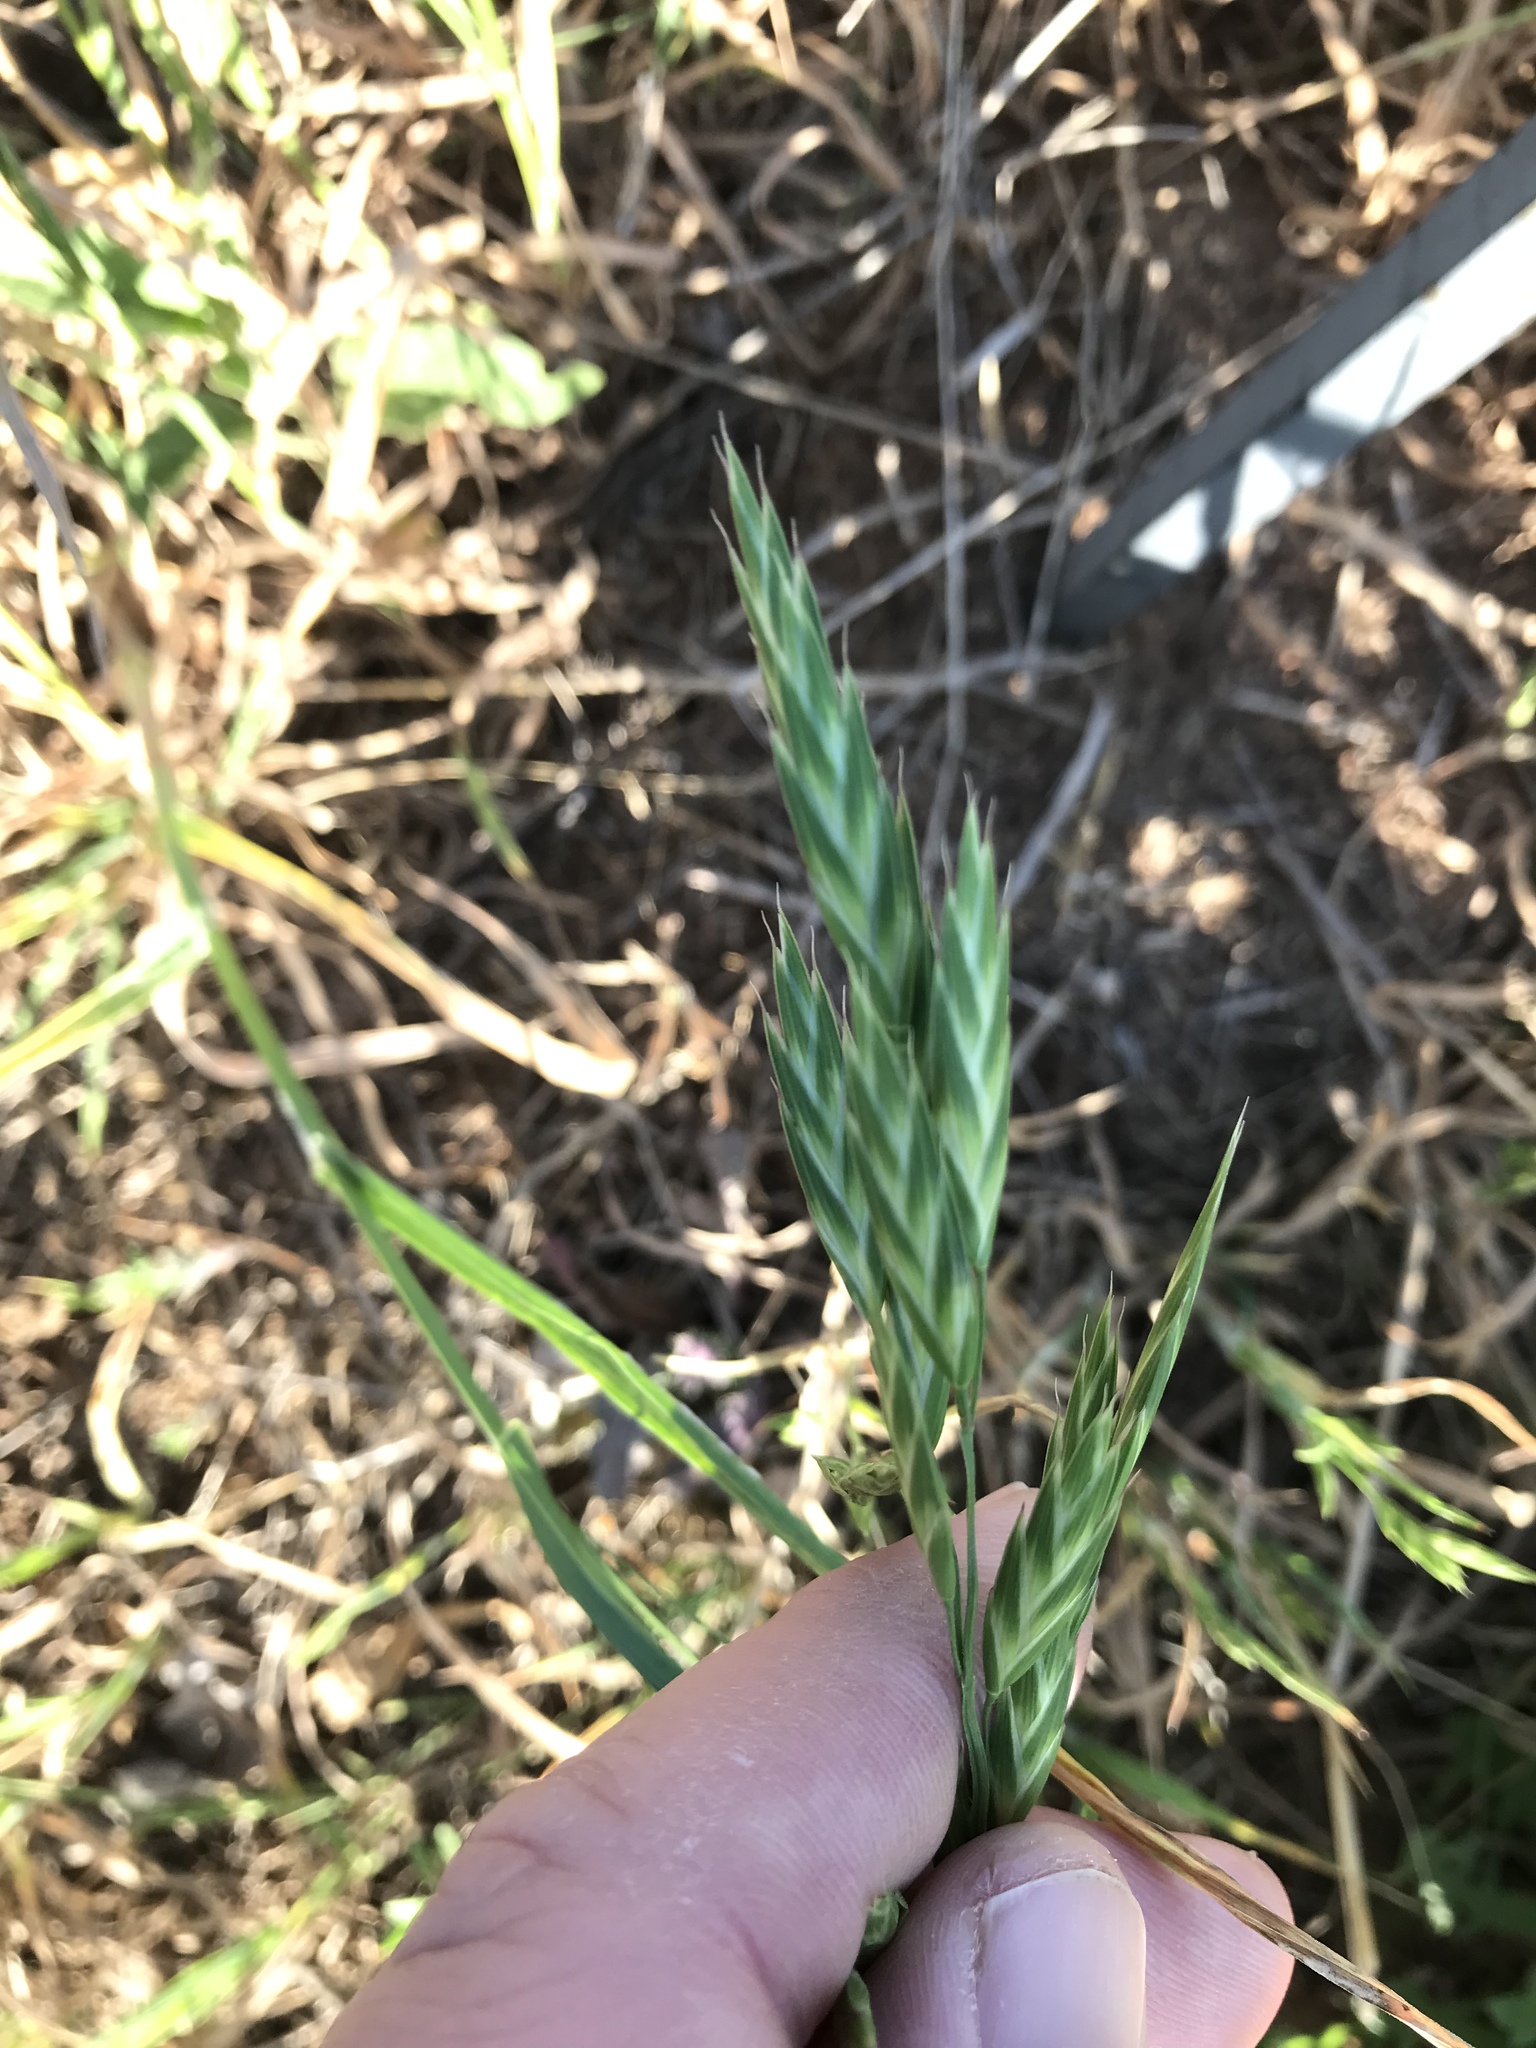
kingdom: Plantae
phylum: Tracheophyta
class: Liliopsida
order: Poales
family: Poaceae
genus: Bromus
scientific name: Bromus catharticus
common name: Rescuegrass
